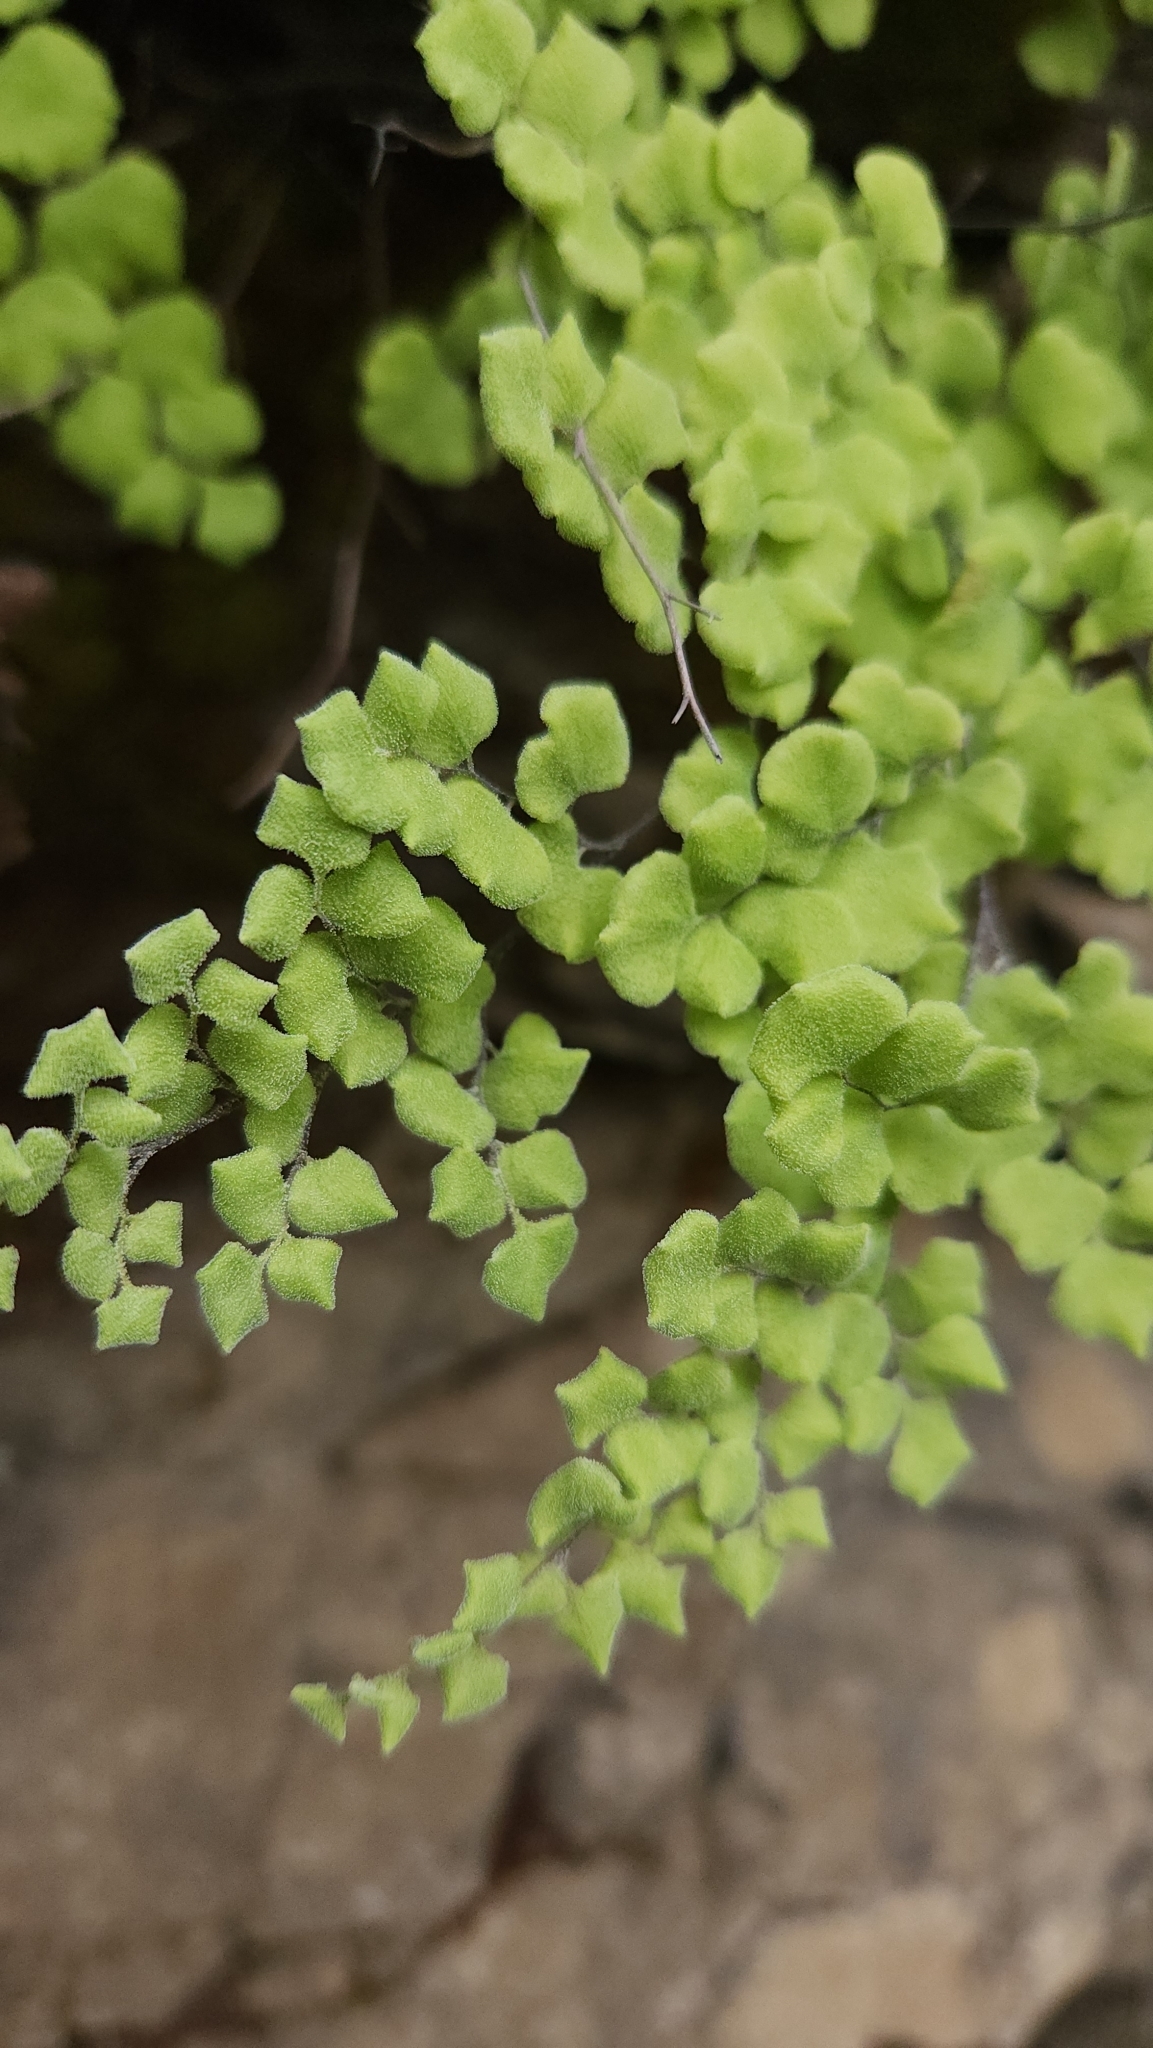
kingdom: Plantae
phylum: Tracheophyta
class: Polypodiopsida
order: Polypodiales
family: Pteridaceae
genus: Adiantum
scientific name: Adiantum chilense
